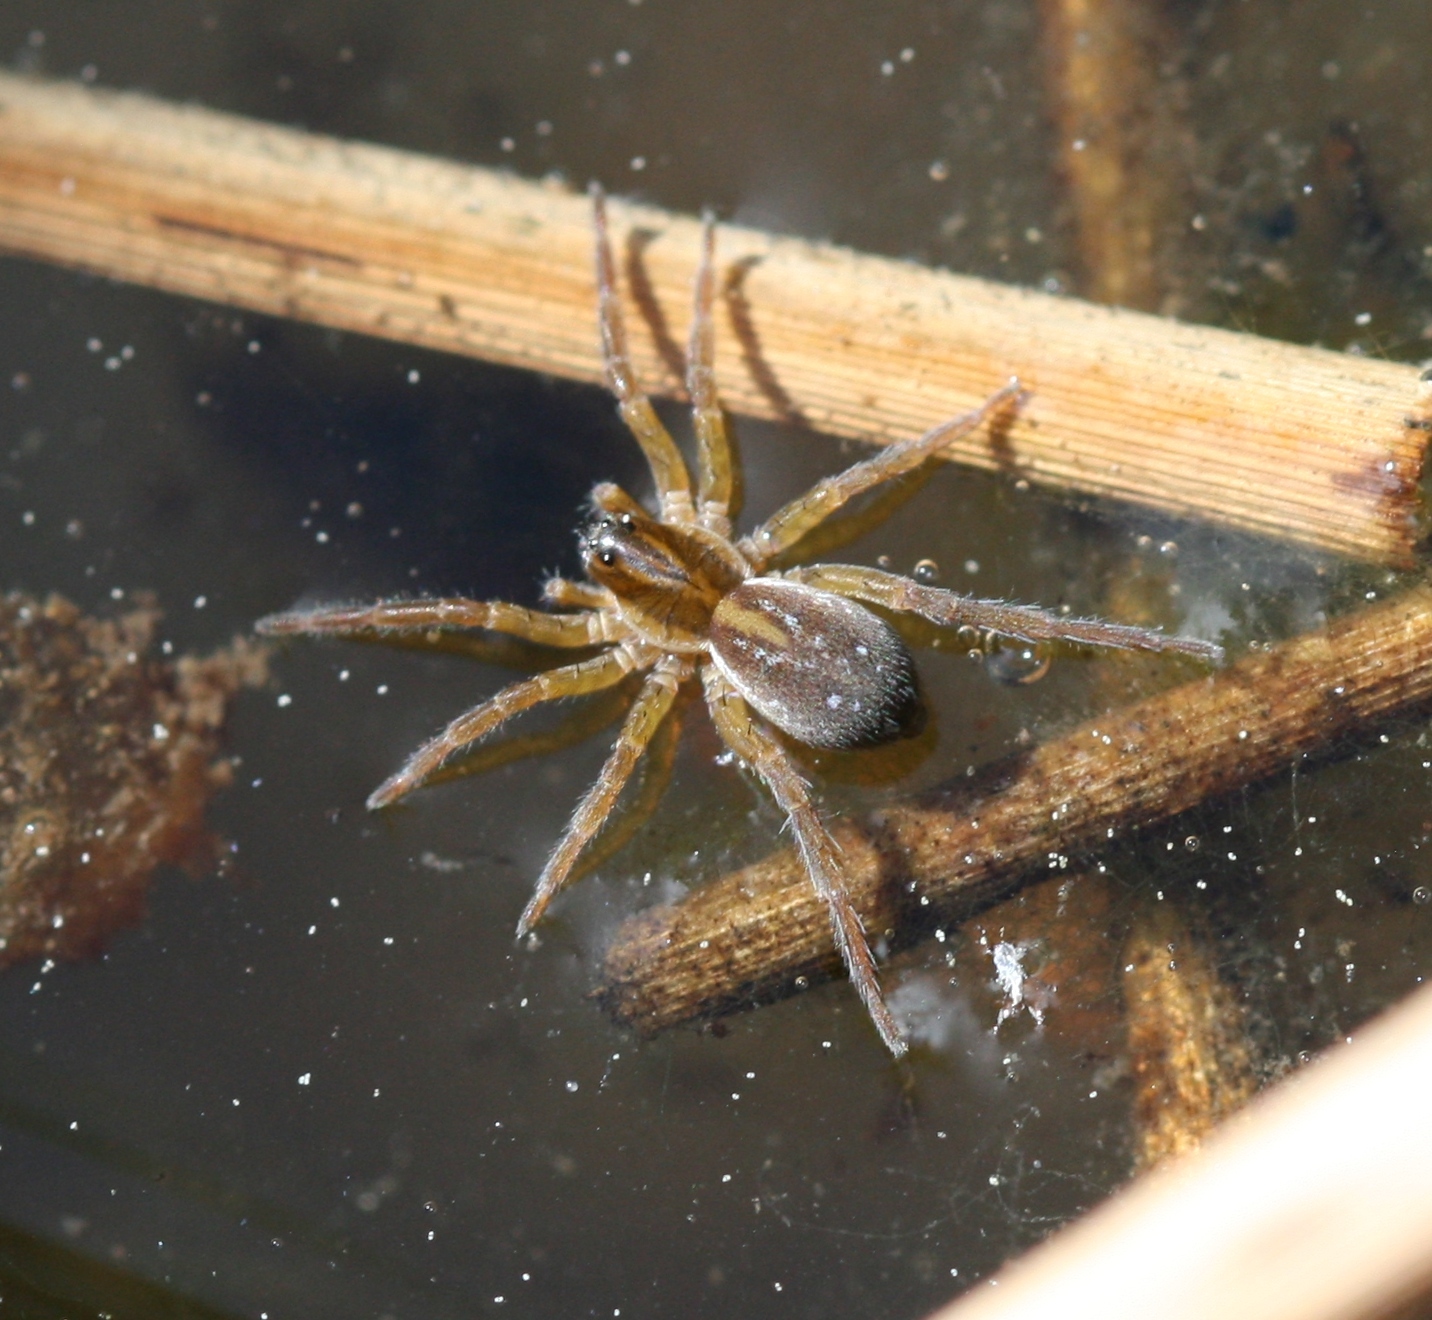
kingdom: Animalia
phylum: Arthropoda
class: Arachnida
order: Araneae
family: Lycosidae
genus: Pirata
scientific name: Pirata
